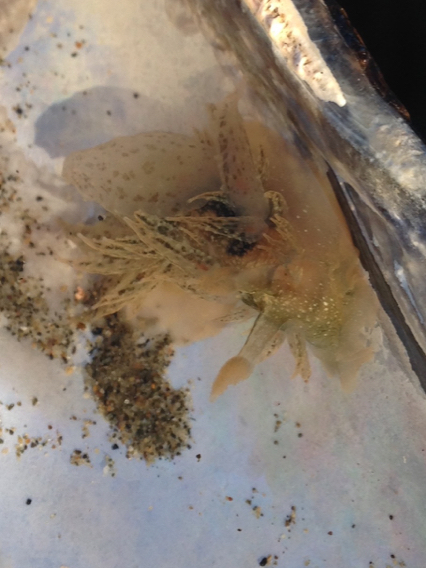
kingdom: Animalia
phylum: Mollusca
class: Gastropoda
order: Nudibranchia
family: Dironidae
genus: Dirona
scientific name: Dirona picta
